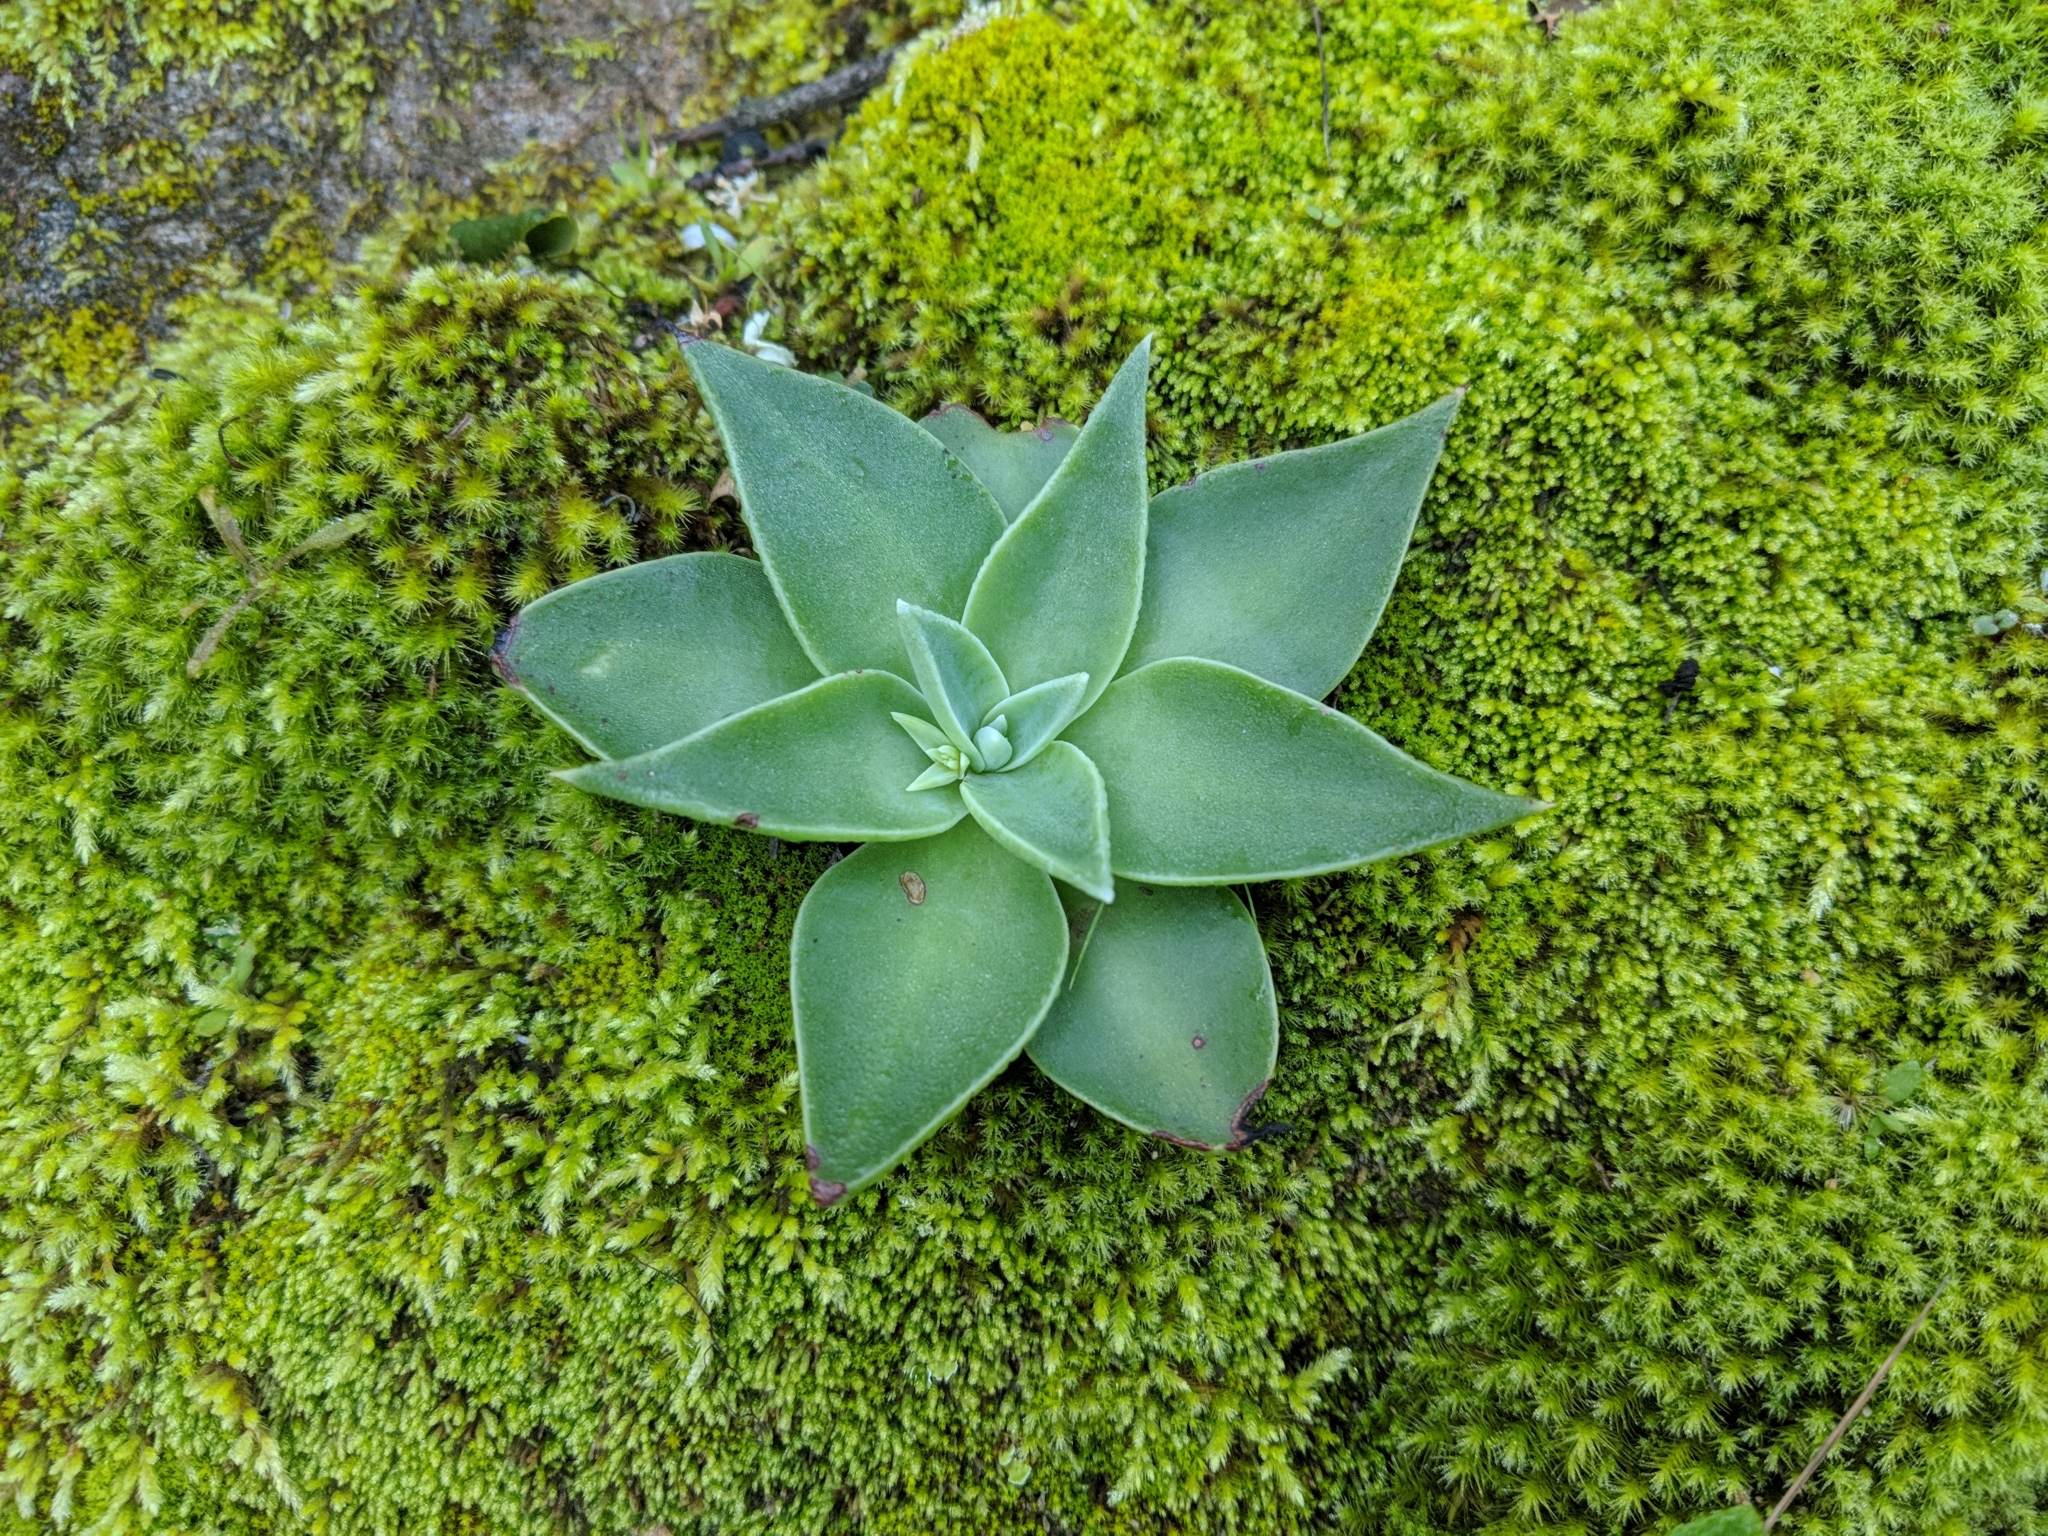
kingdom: Plantae
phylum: Tracheophyta
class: Magnoliopsida
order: Saxifragales
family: Crassulaceae
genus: Dudleya
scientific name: Dudleya cymosa
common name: Canyon dudleya
